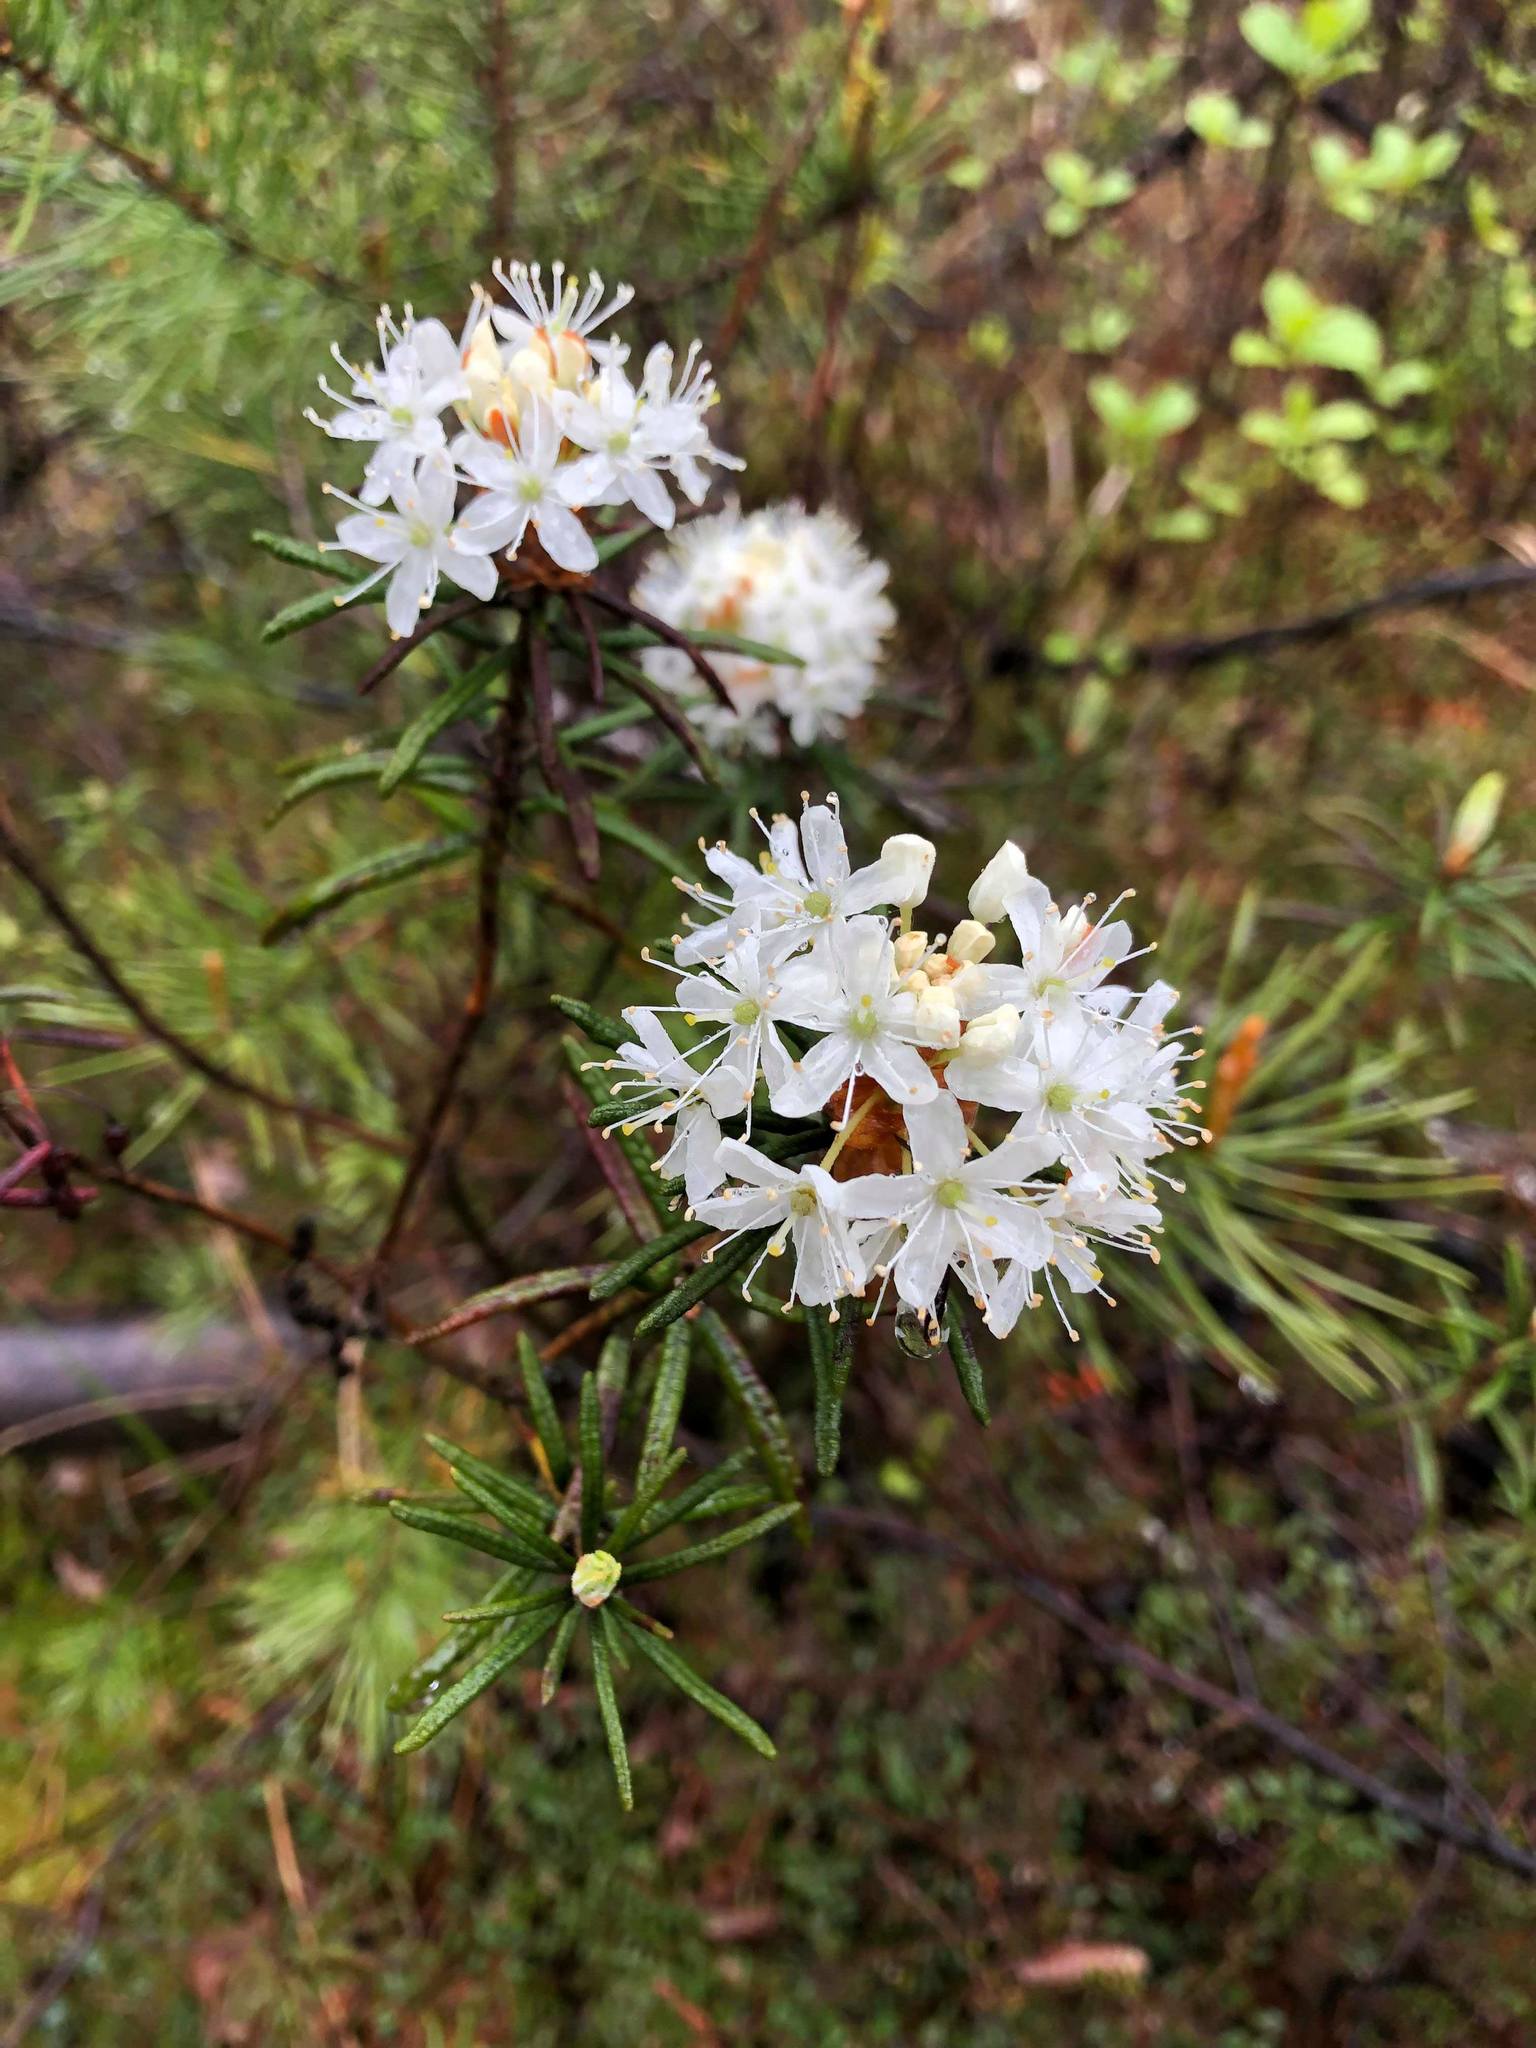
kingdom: Plantae
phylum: Tracheophyta
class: Magnoliopsida
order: Ericales
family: Ericaceae
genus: Rhododendron
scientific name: Rhododendron tomentosum
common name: Marsh labrador tea
